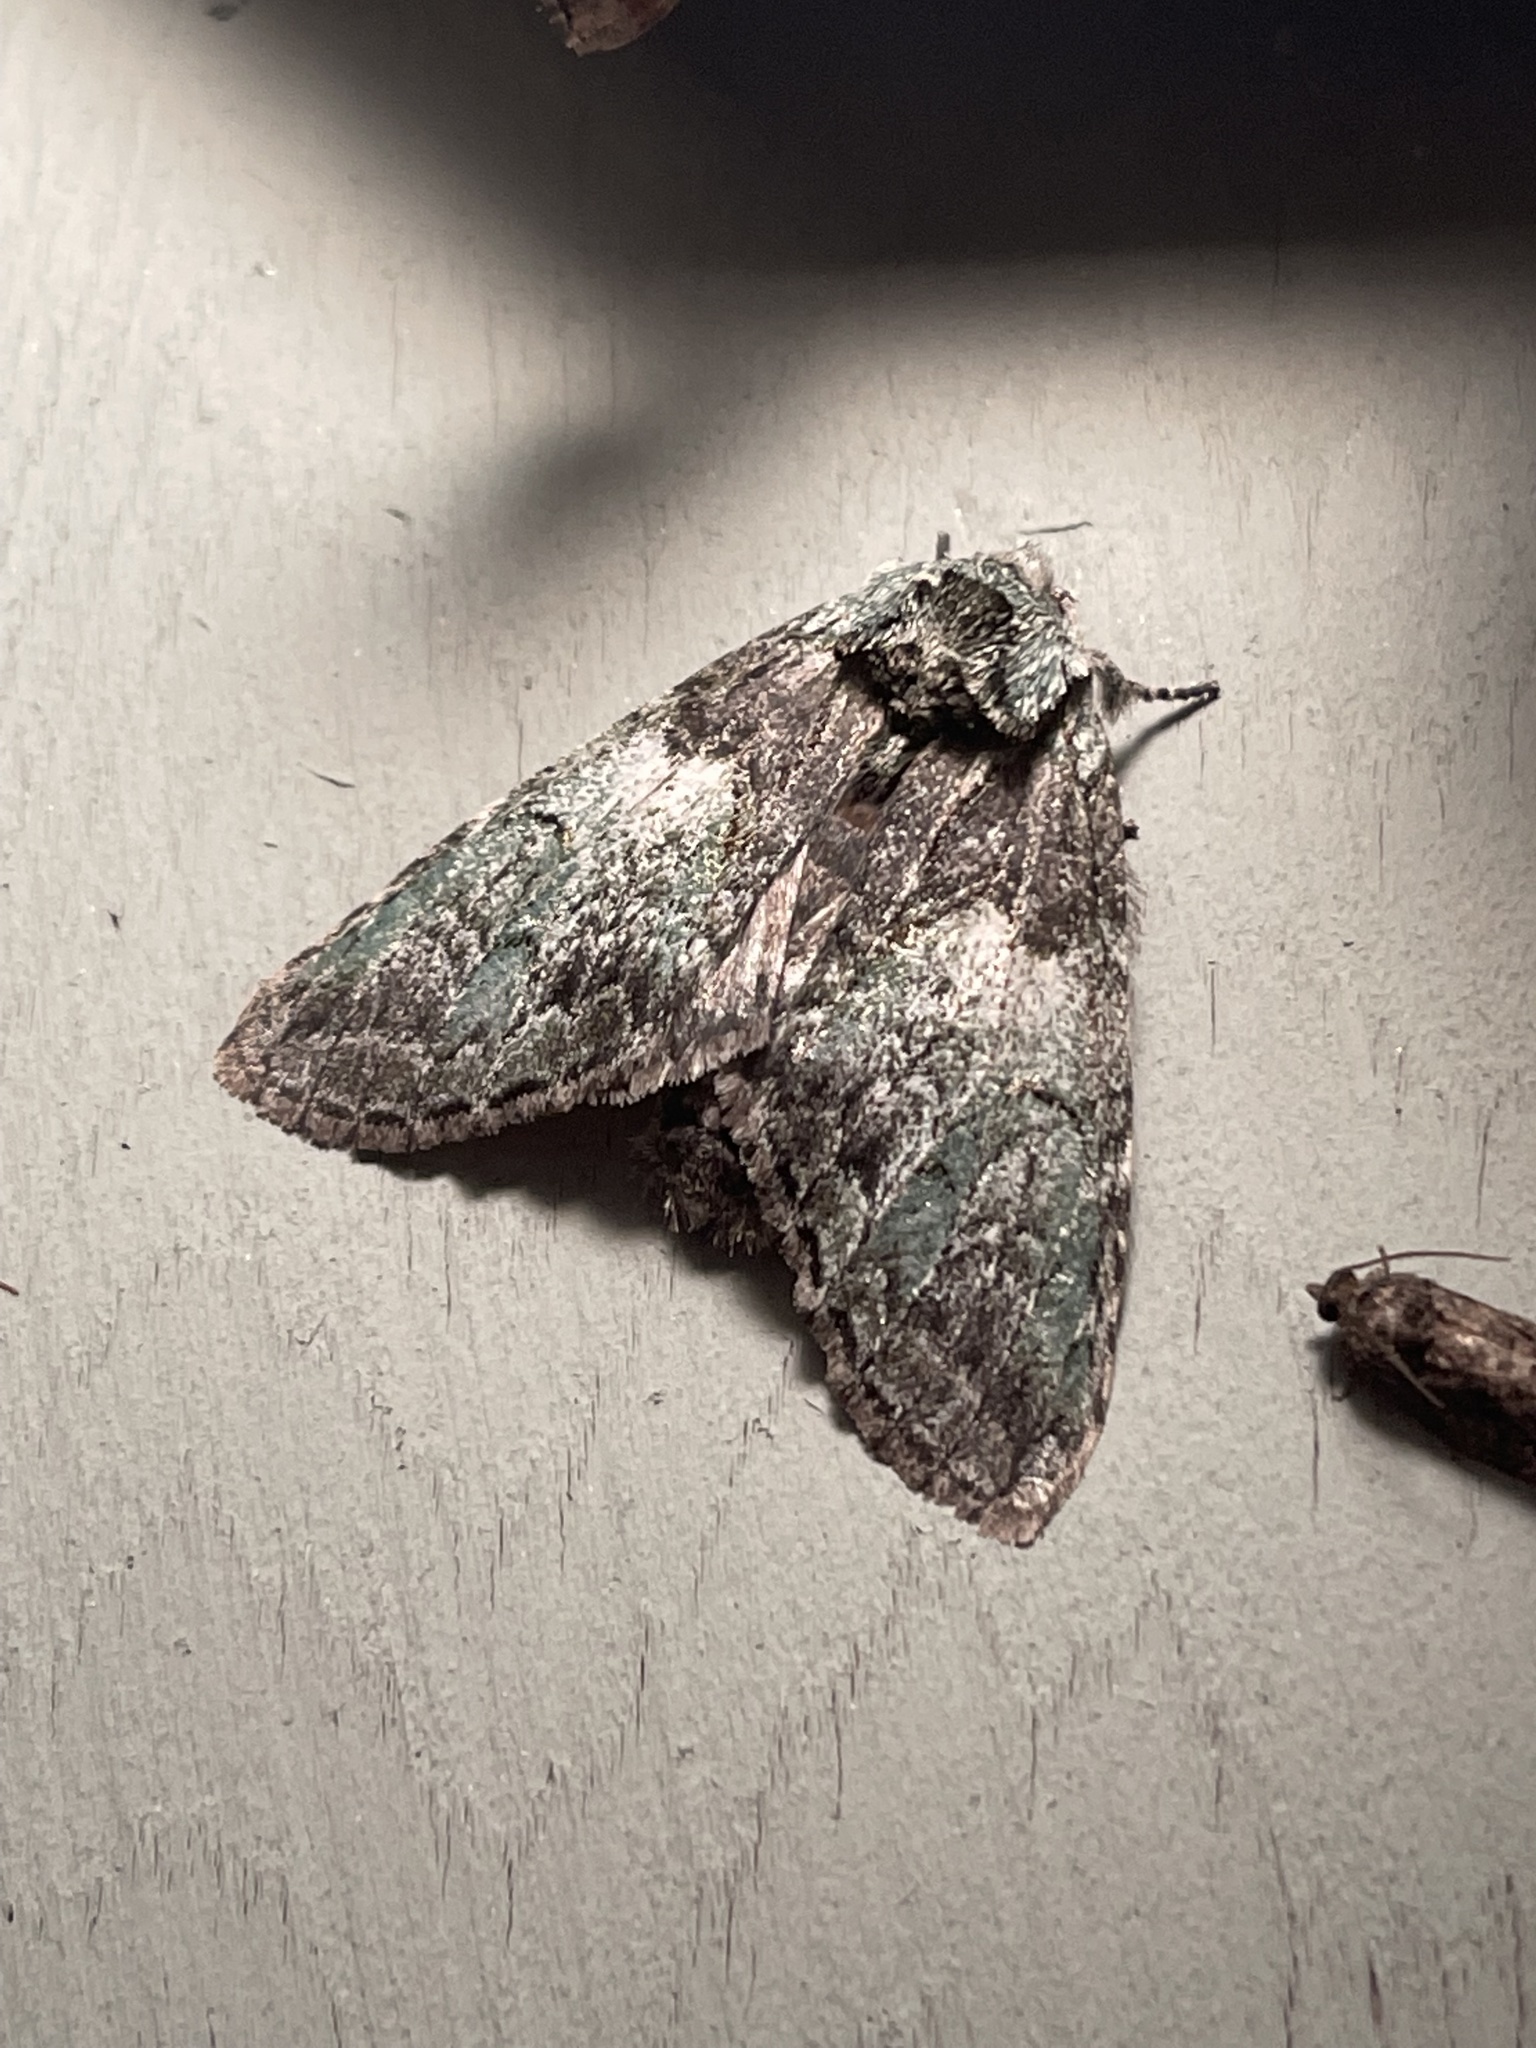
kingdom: Animalia
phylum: Arthropoda
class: Insecta
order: Lepidoptera
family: Notodontidae
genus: Macrurocampa
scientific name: Macrurocampa marthesia
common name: Mottled prominent
